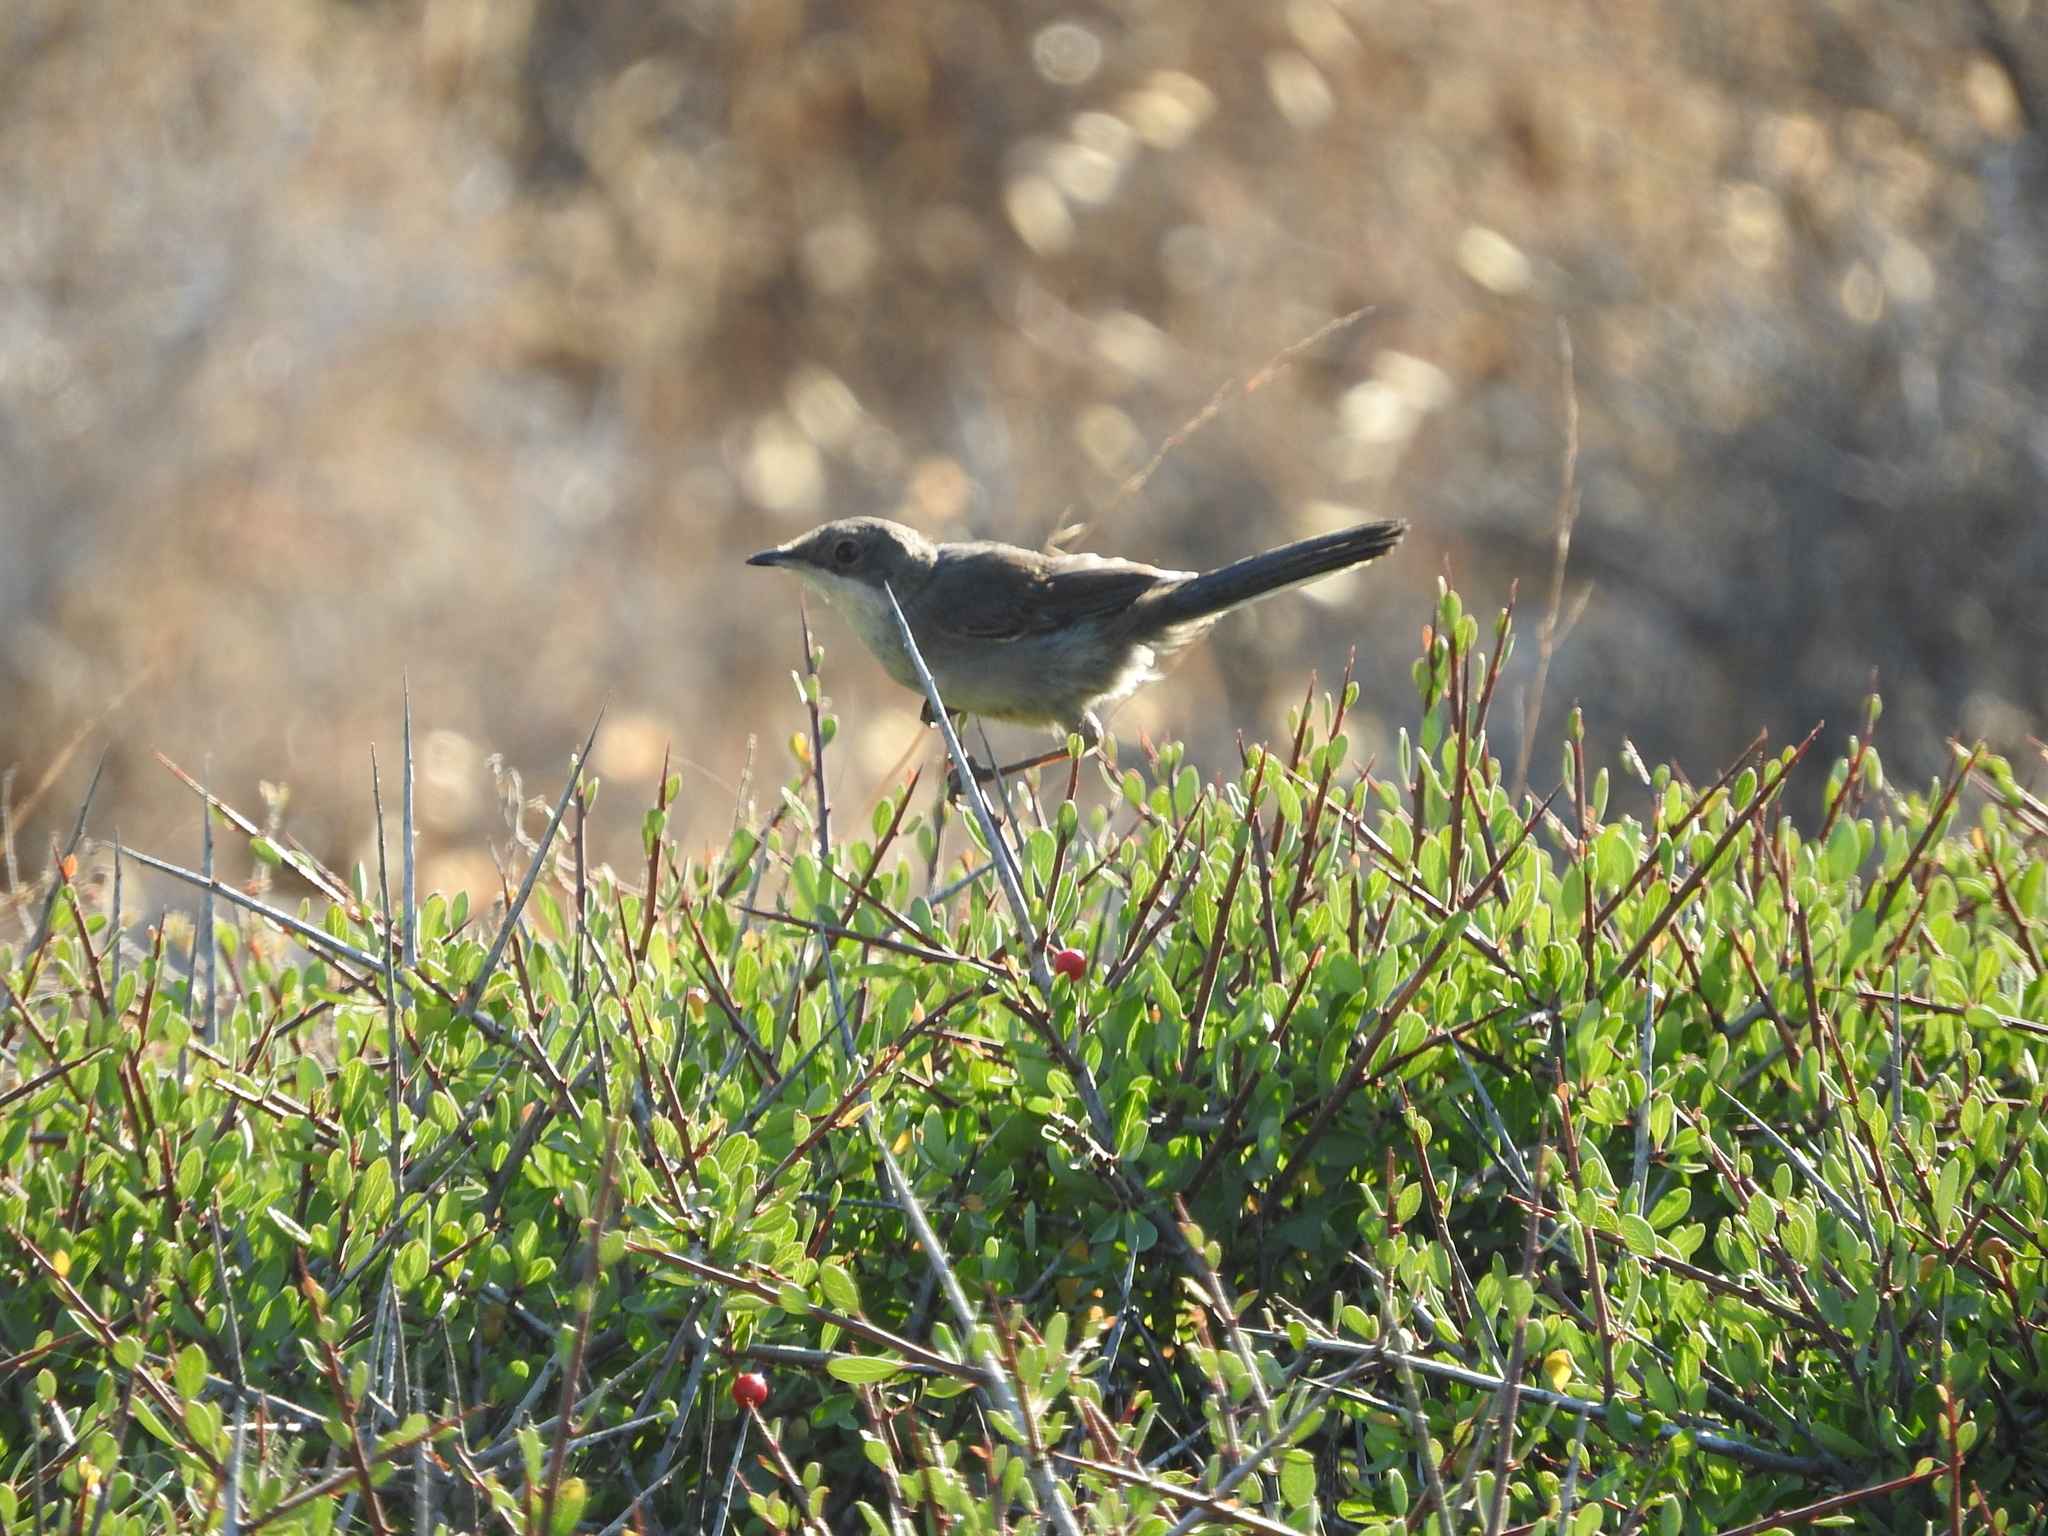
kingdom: Animalia
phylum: Chordata
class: Aves
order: Passeriformes
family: Sylviidae
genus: Curruca
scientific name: Curruca melanocephala
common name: Sardinian warbler
